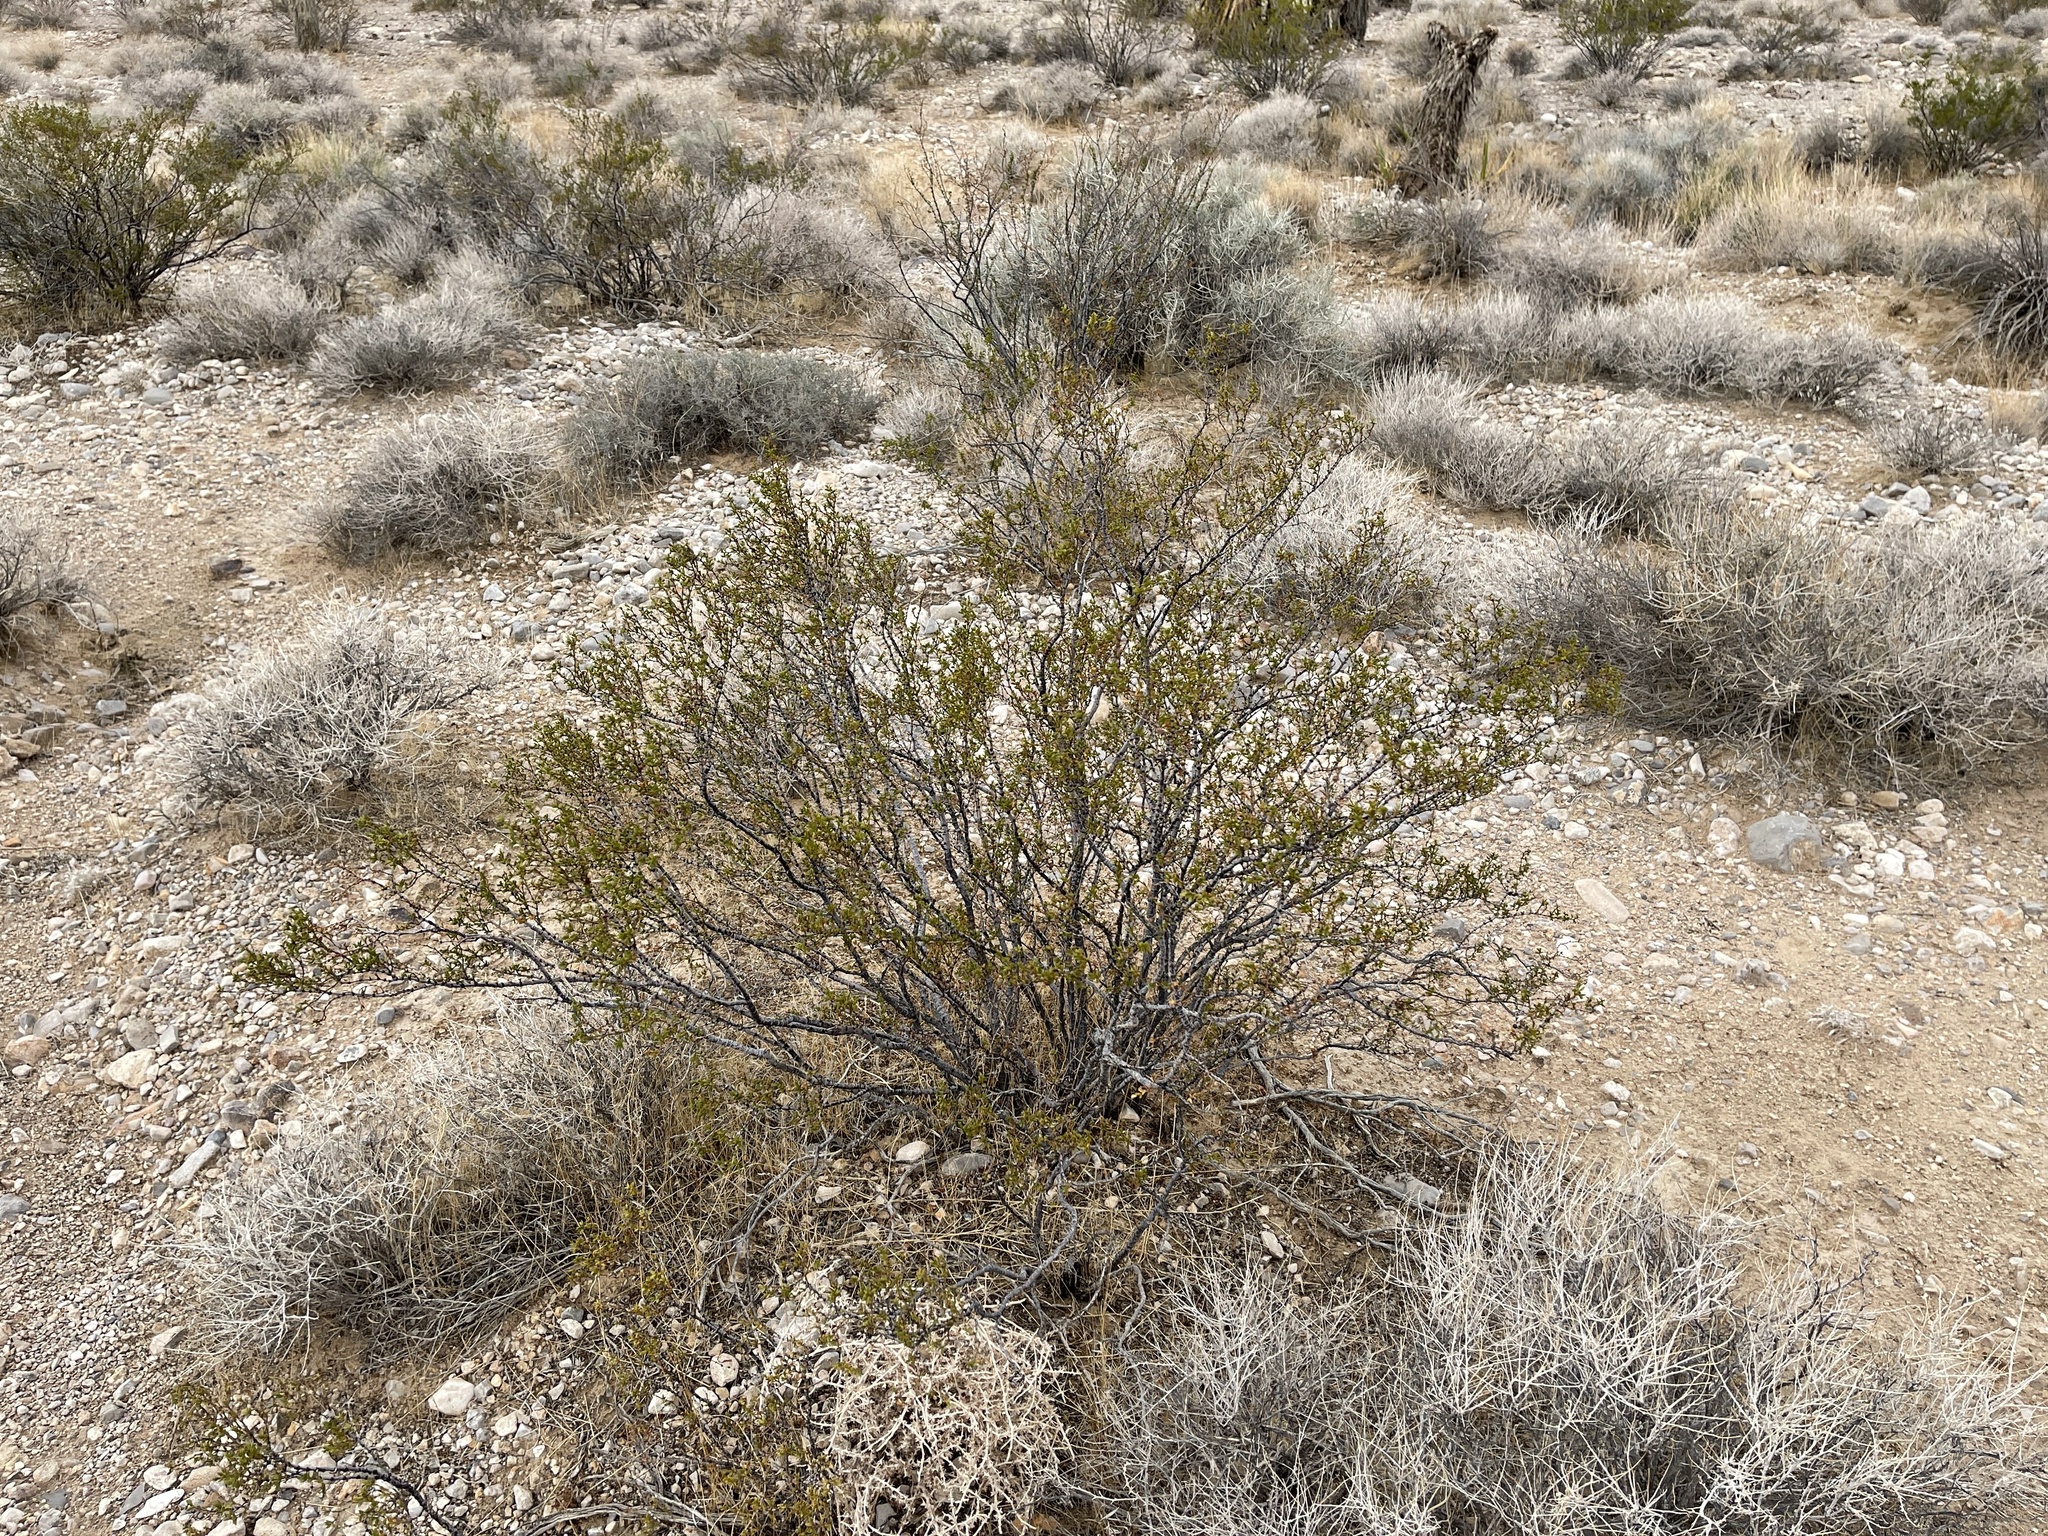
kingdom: Plantae
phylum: Tracheophyta
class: Magnoliopsida
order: Zygophyllales
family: Zygophyllaceae
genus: Larrea
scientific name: Larrea tridentata
